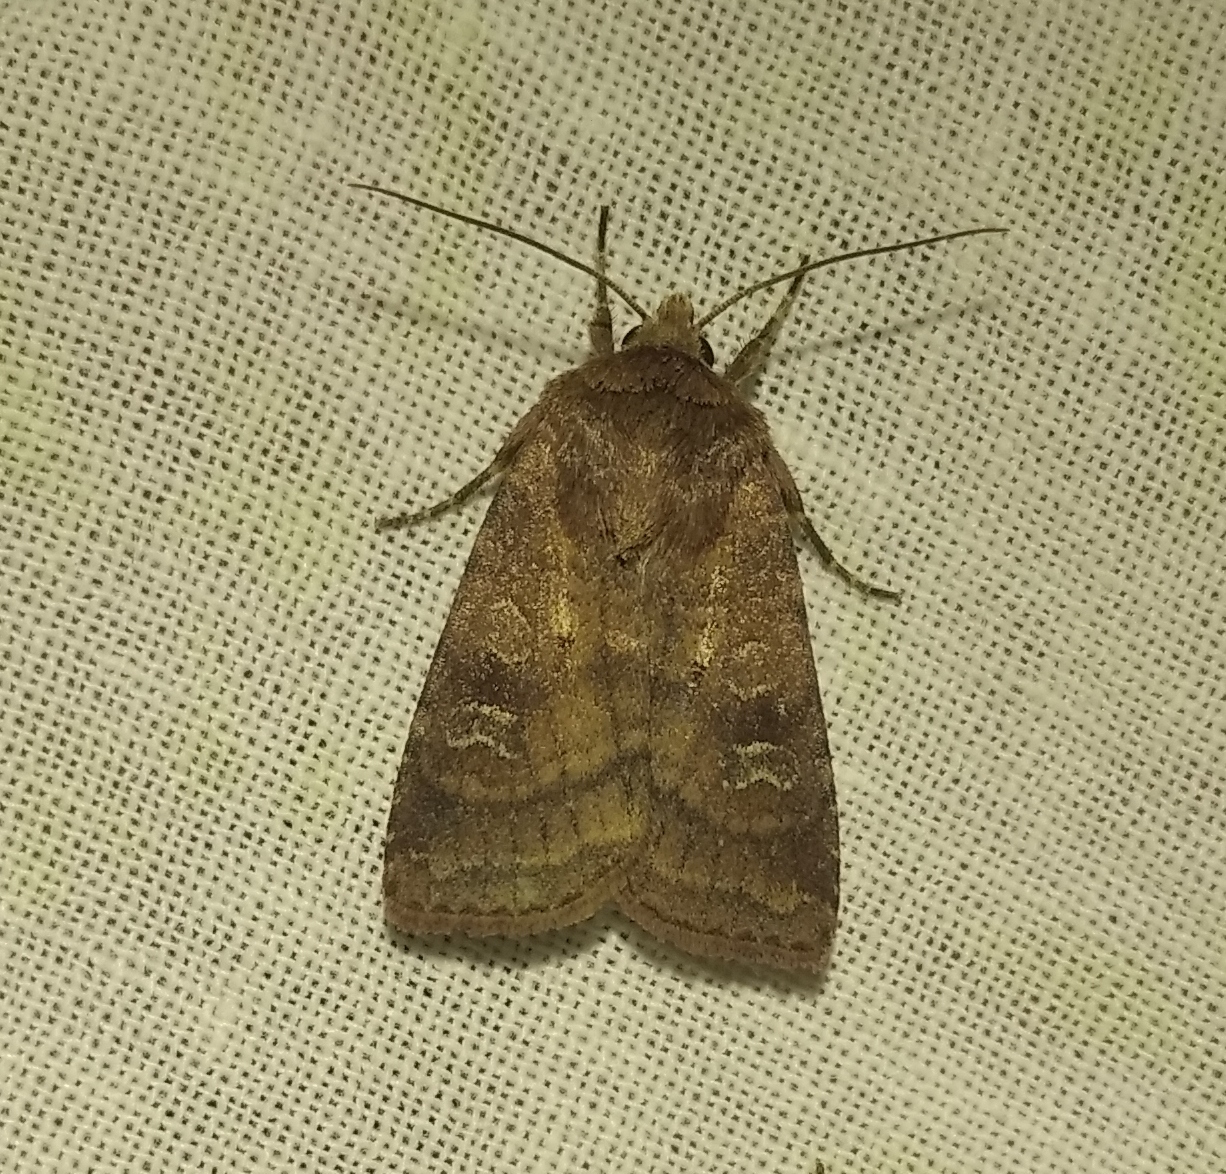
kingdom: Animalia
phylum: Arthropoda
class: Insecta
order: Lepidoptera
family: Noctuidae
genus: Diarsia
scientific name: Diarsia rubi
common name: Small square-spot
